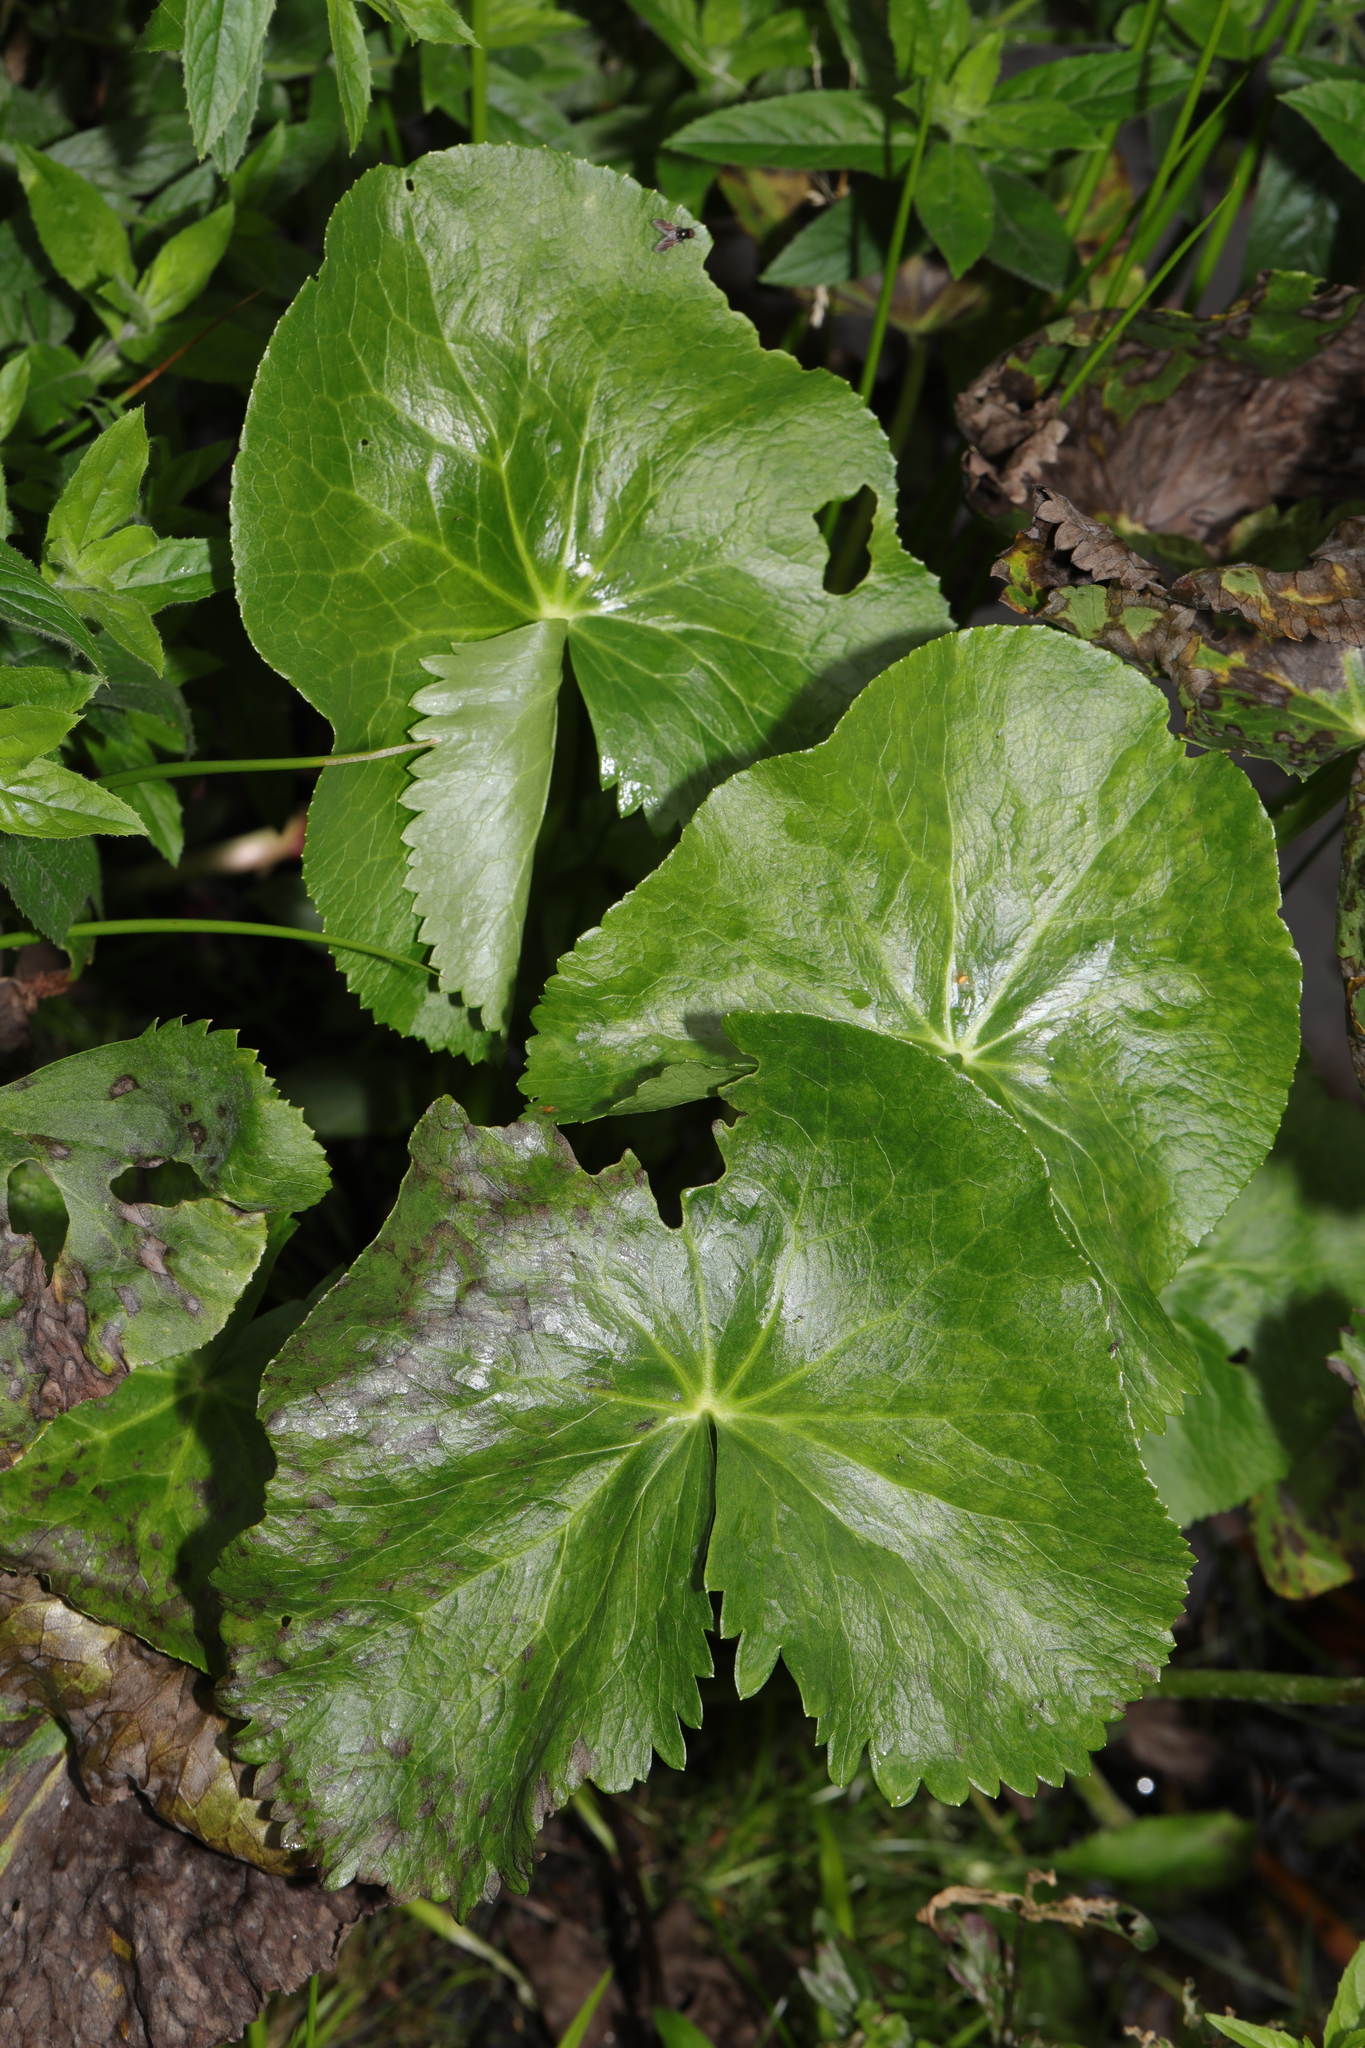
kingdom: Plantae
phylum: Tracheophyta
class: Magnoliopsida
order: Ranunculales
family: Ranunculaceae
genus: Caltha
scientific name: Caltha palustris
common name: Marsh marigold
